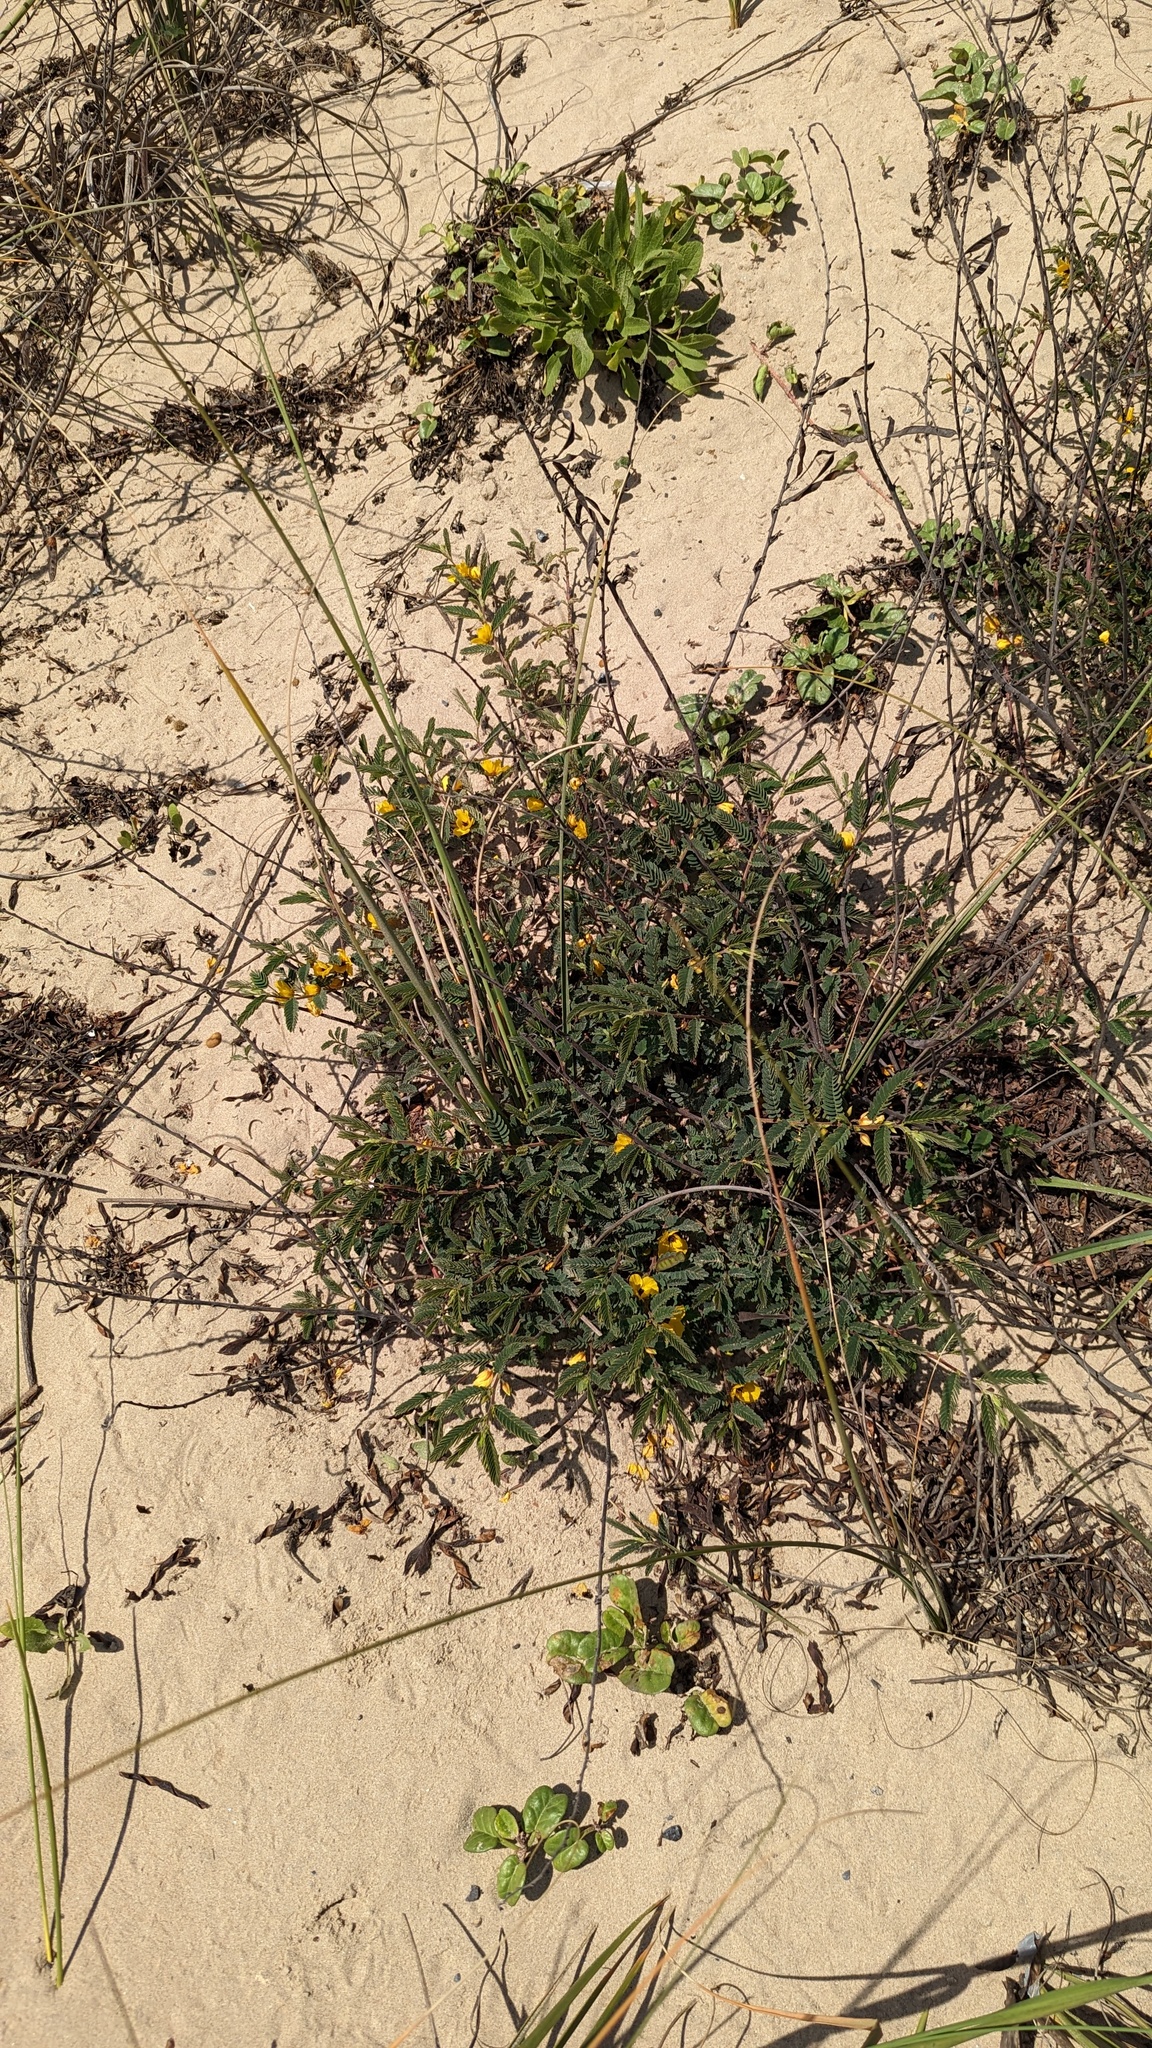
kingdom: Plantae
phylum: Tracheophyta
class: Magnoliopsida
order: Fabales
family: Fabaceae
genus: Chamaecrista
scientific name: Chamaecrista fasciculata
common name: Golden cassia
